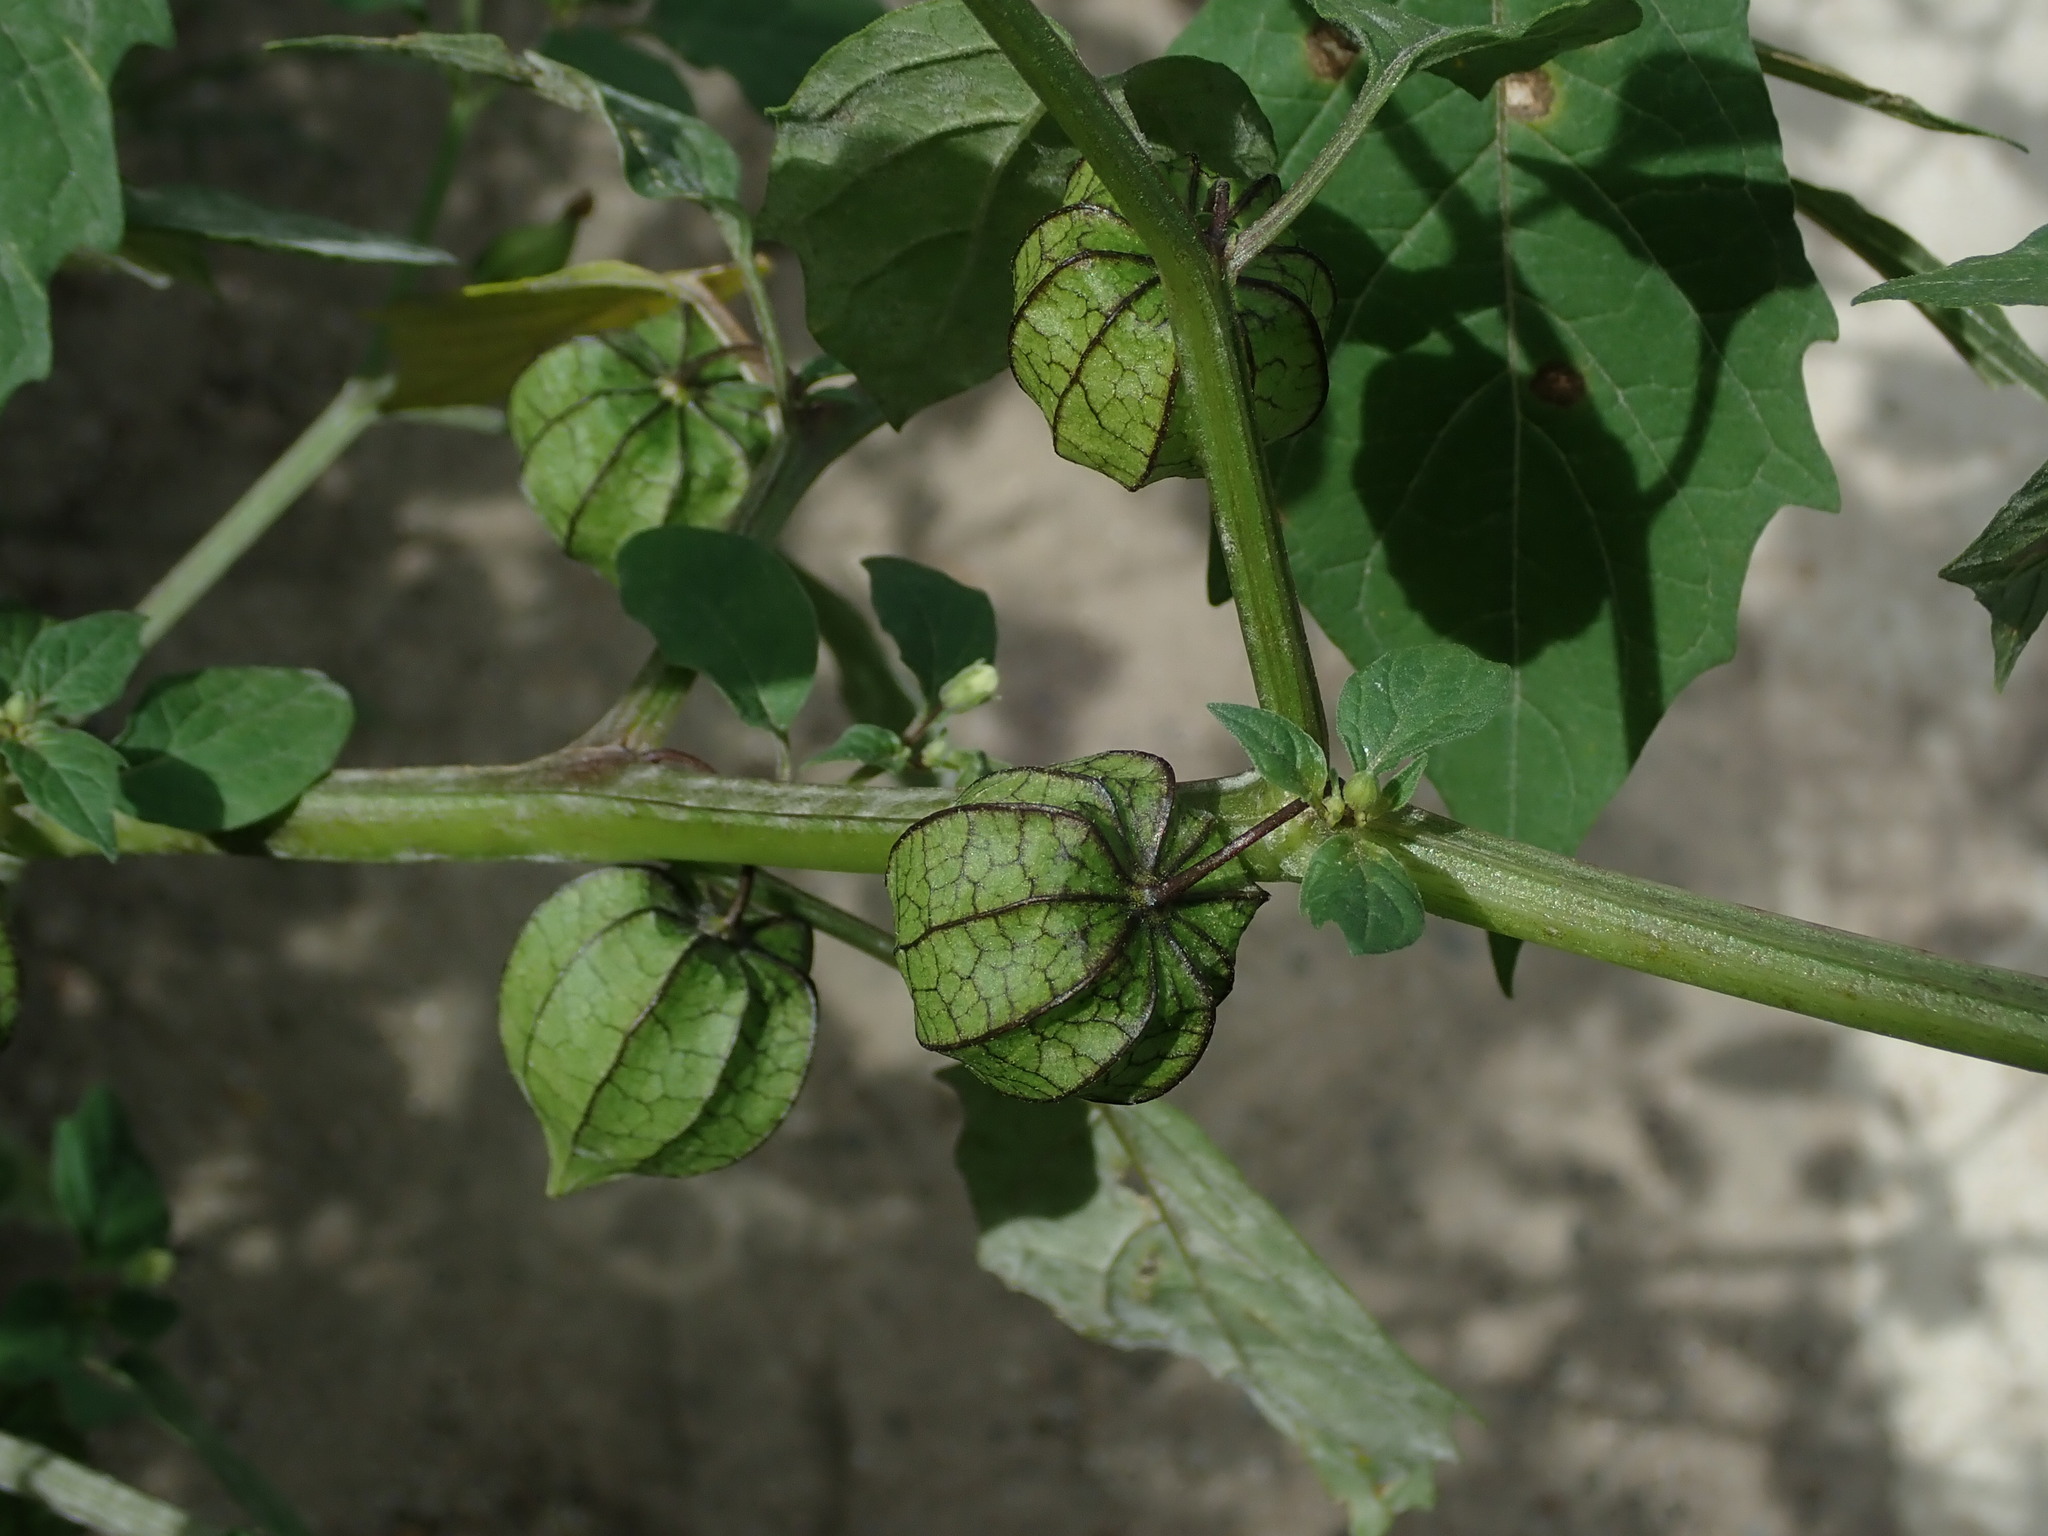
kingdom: Plantae
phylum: Tracheophyta
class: Magnoliopsida
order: Solanales
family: Solanaceae
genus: Physalis
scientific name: Physalis angulata
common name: Angular winter-cherry
